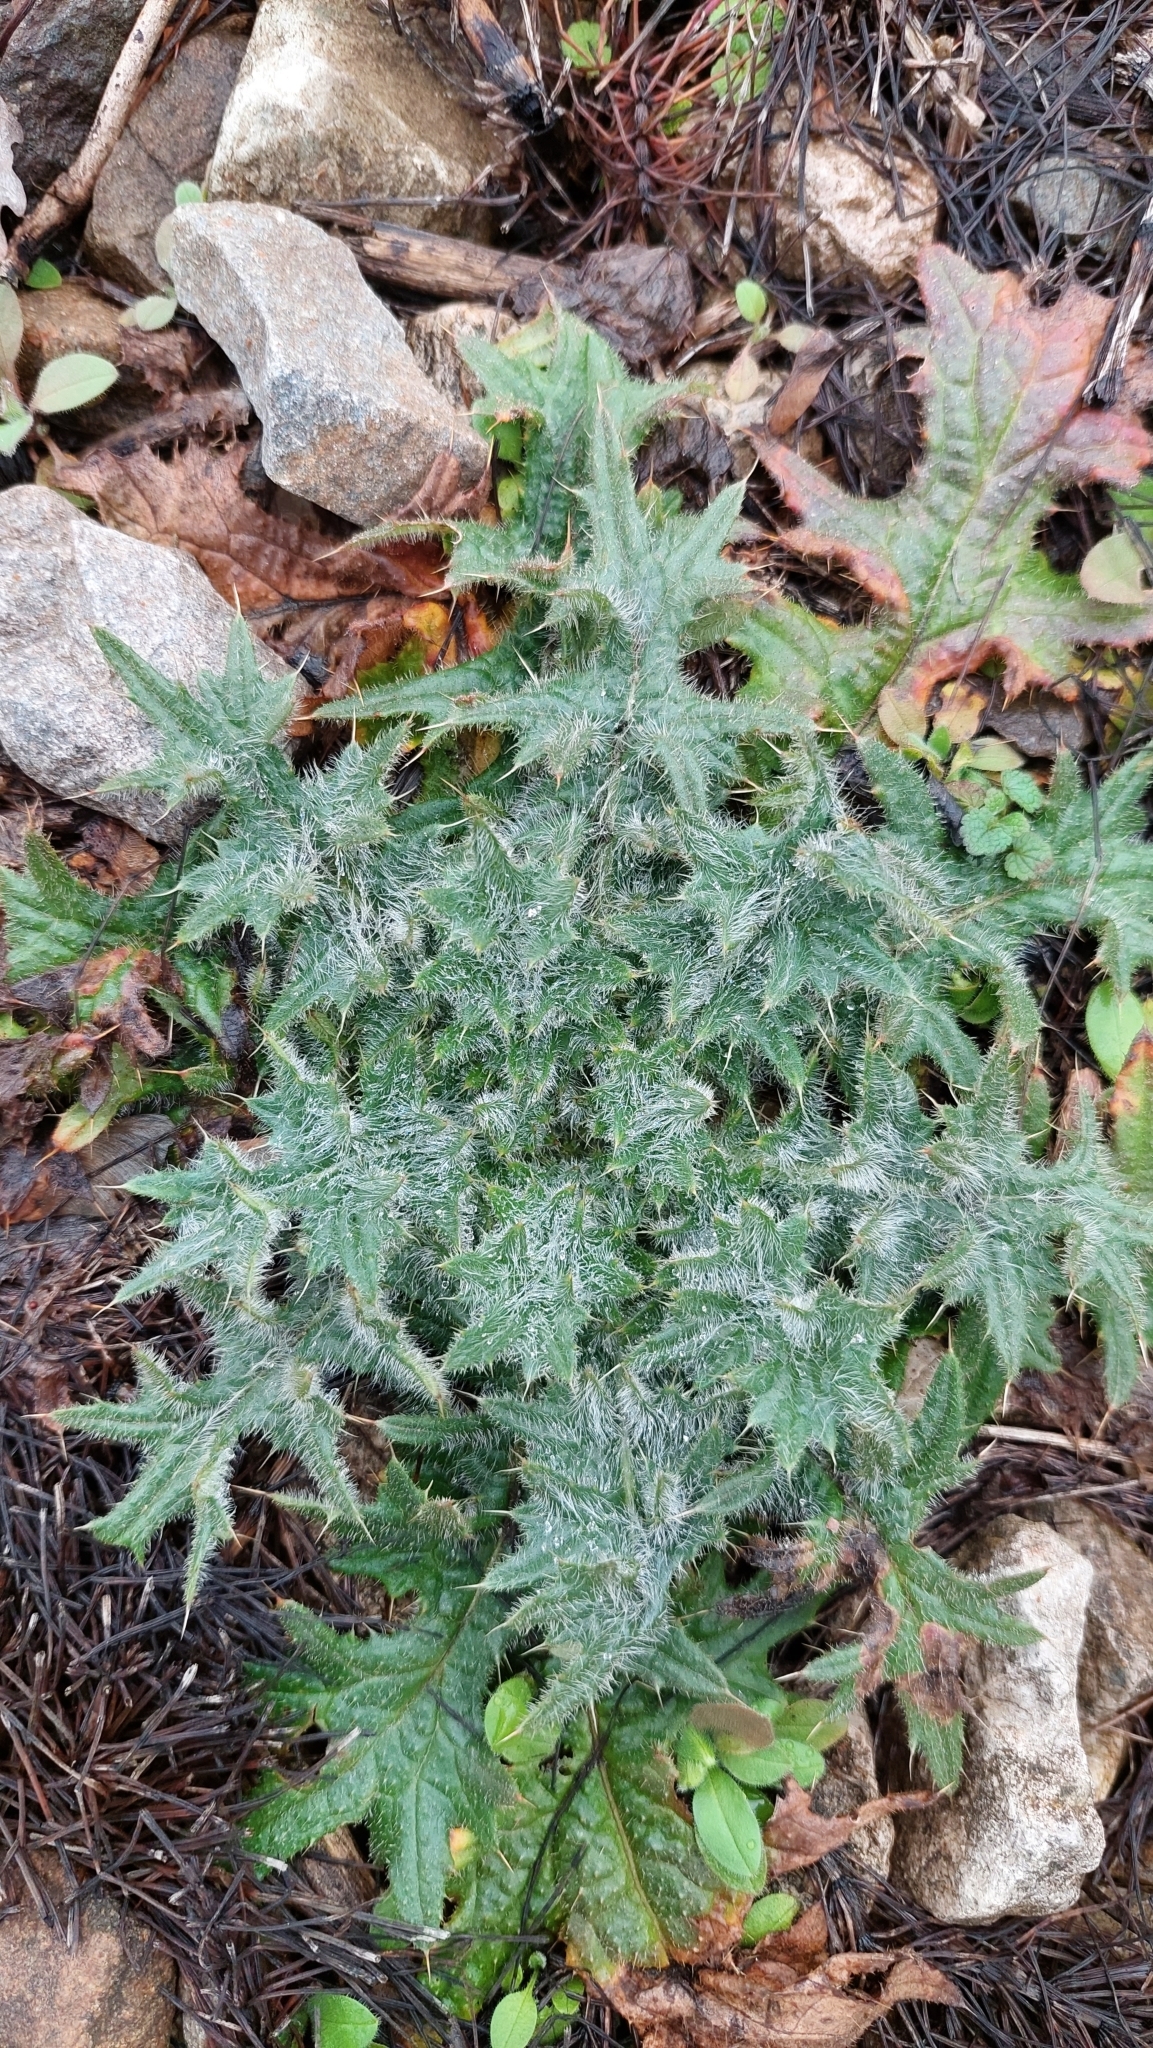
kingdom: Plantae
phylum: Tracheophyta
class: Magnoliopsida
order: Asterales
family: Asteraceae
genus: Cirsium
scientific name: Cirsium vulgare
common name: Bull thistle
